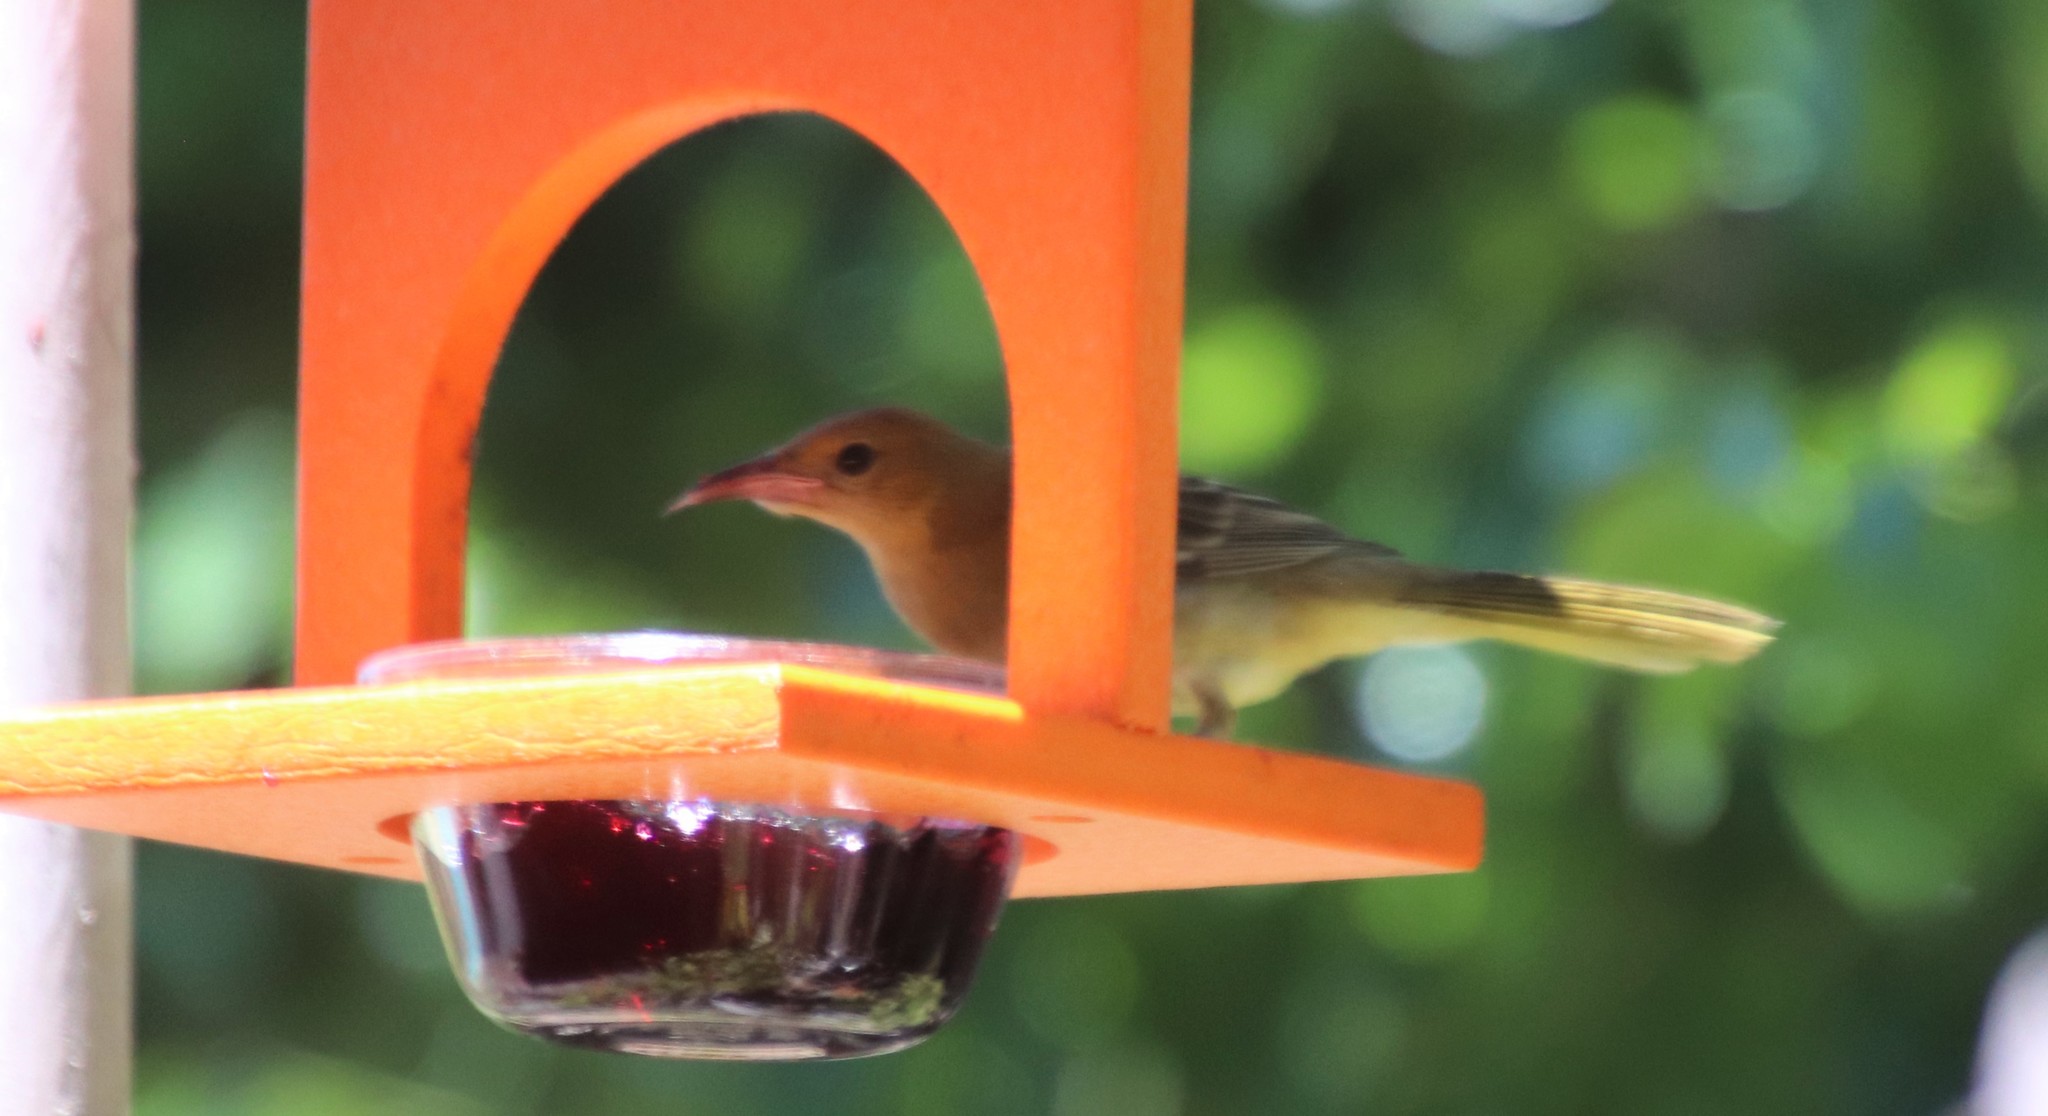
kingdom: Animalia
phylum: Chordata
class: Aves
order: Passeriformes
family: Icteridae
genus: Icterus
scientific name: Icterus cucullatus
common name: Hooded oriole
